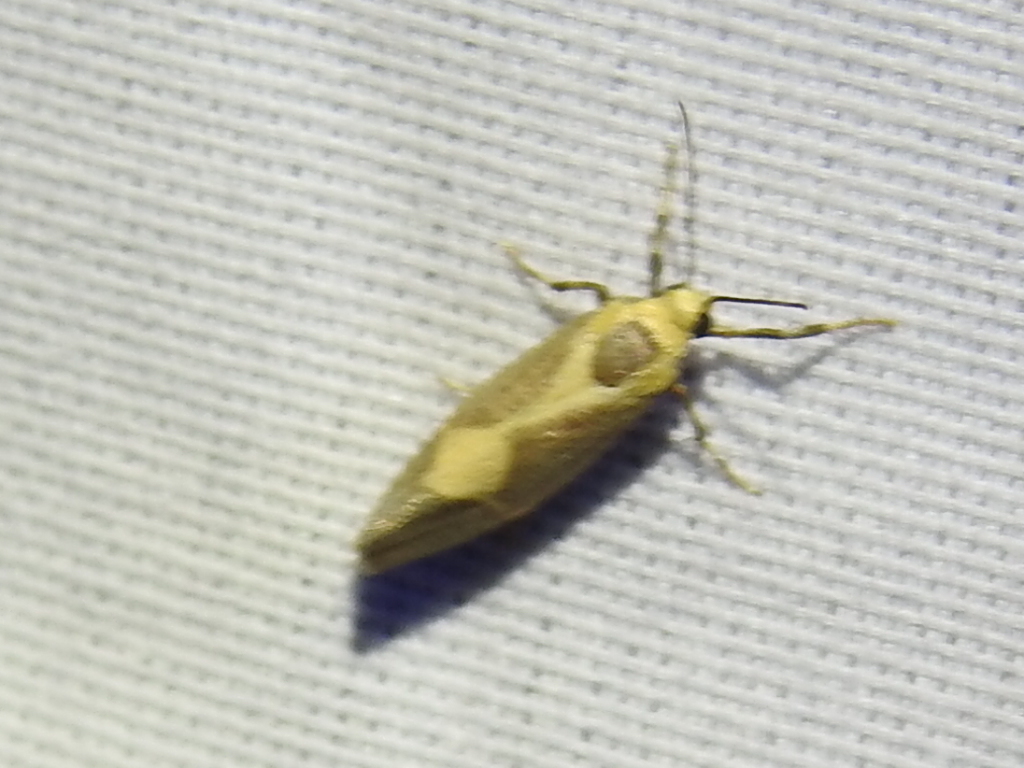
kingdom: Animalia
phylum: Arthropoda
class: Insecta
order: Lepidoptera
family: Erebidae
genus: Cisthene
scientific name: Cisthene tenuifascia
